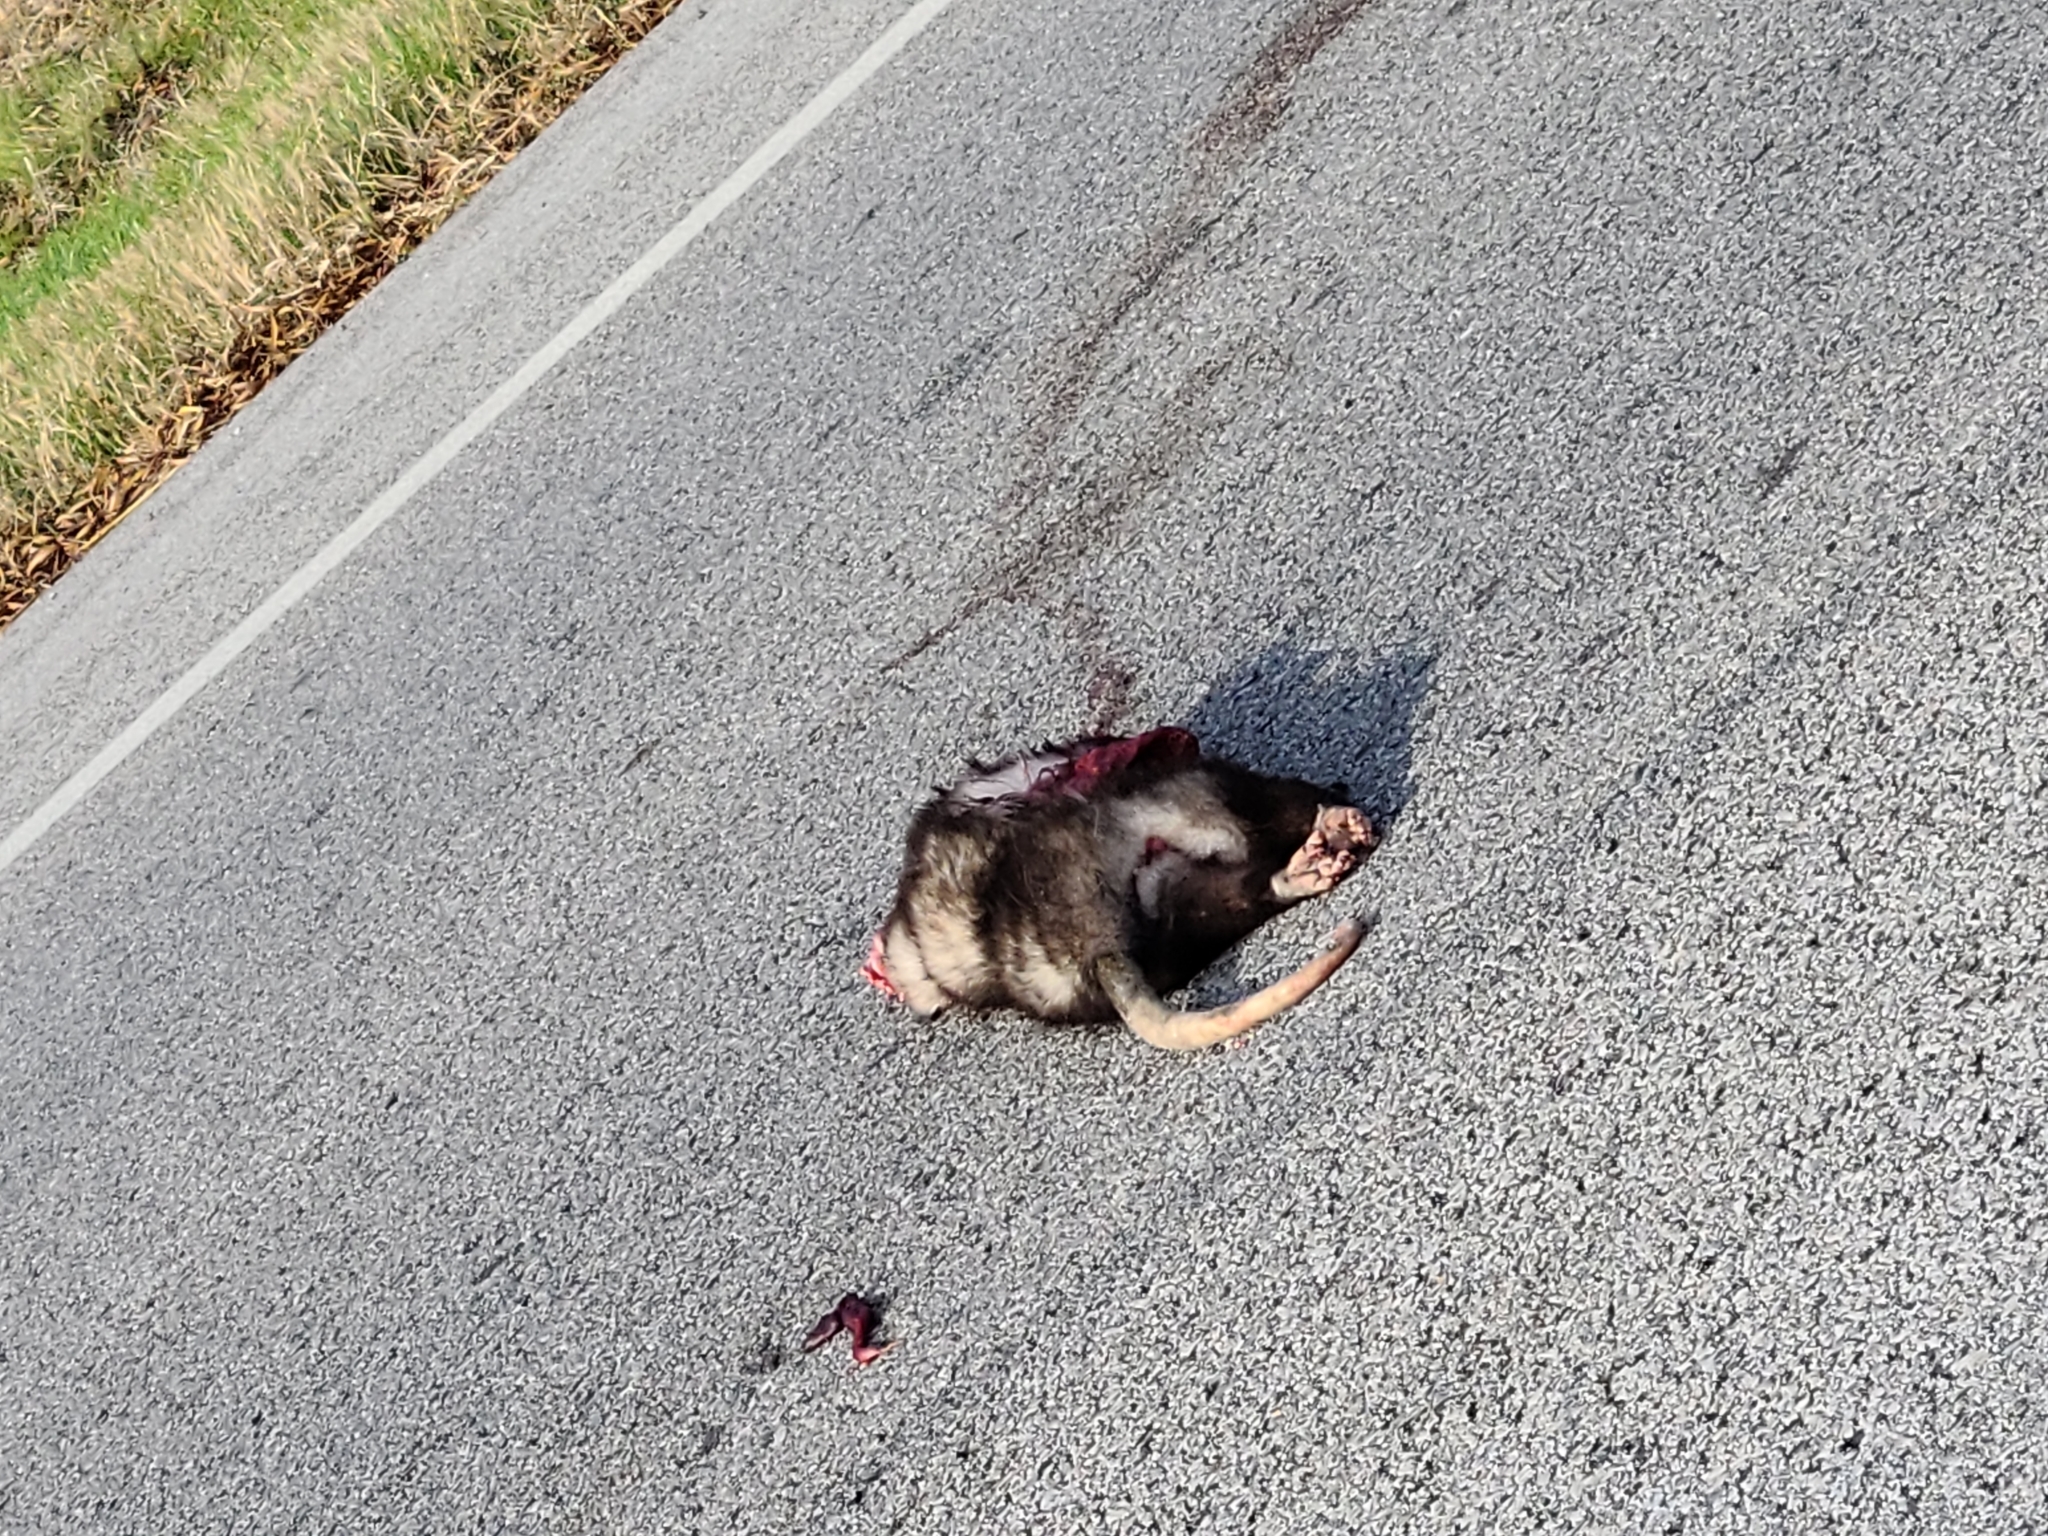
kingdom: Animalia
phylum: Chordata
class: Mammalia
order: Didelphimorphia
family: Didelphidae
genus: Didelphis
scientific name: Didelphis virginiana
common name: Virginia opossum
